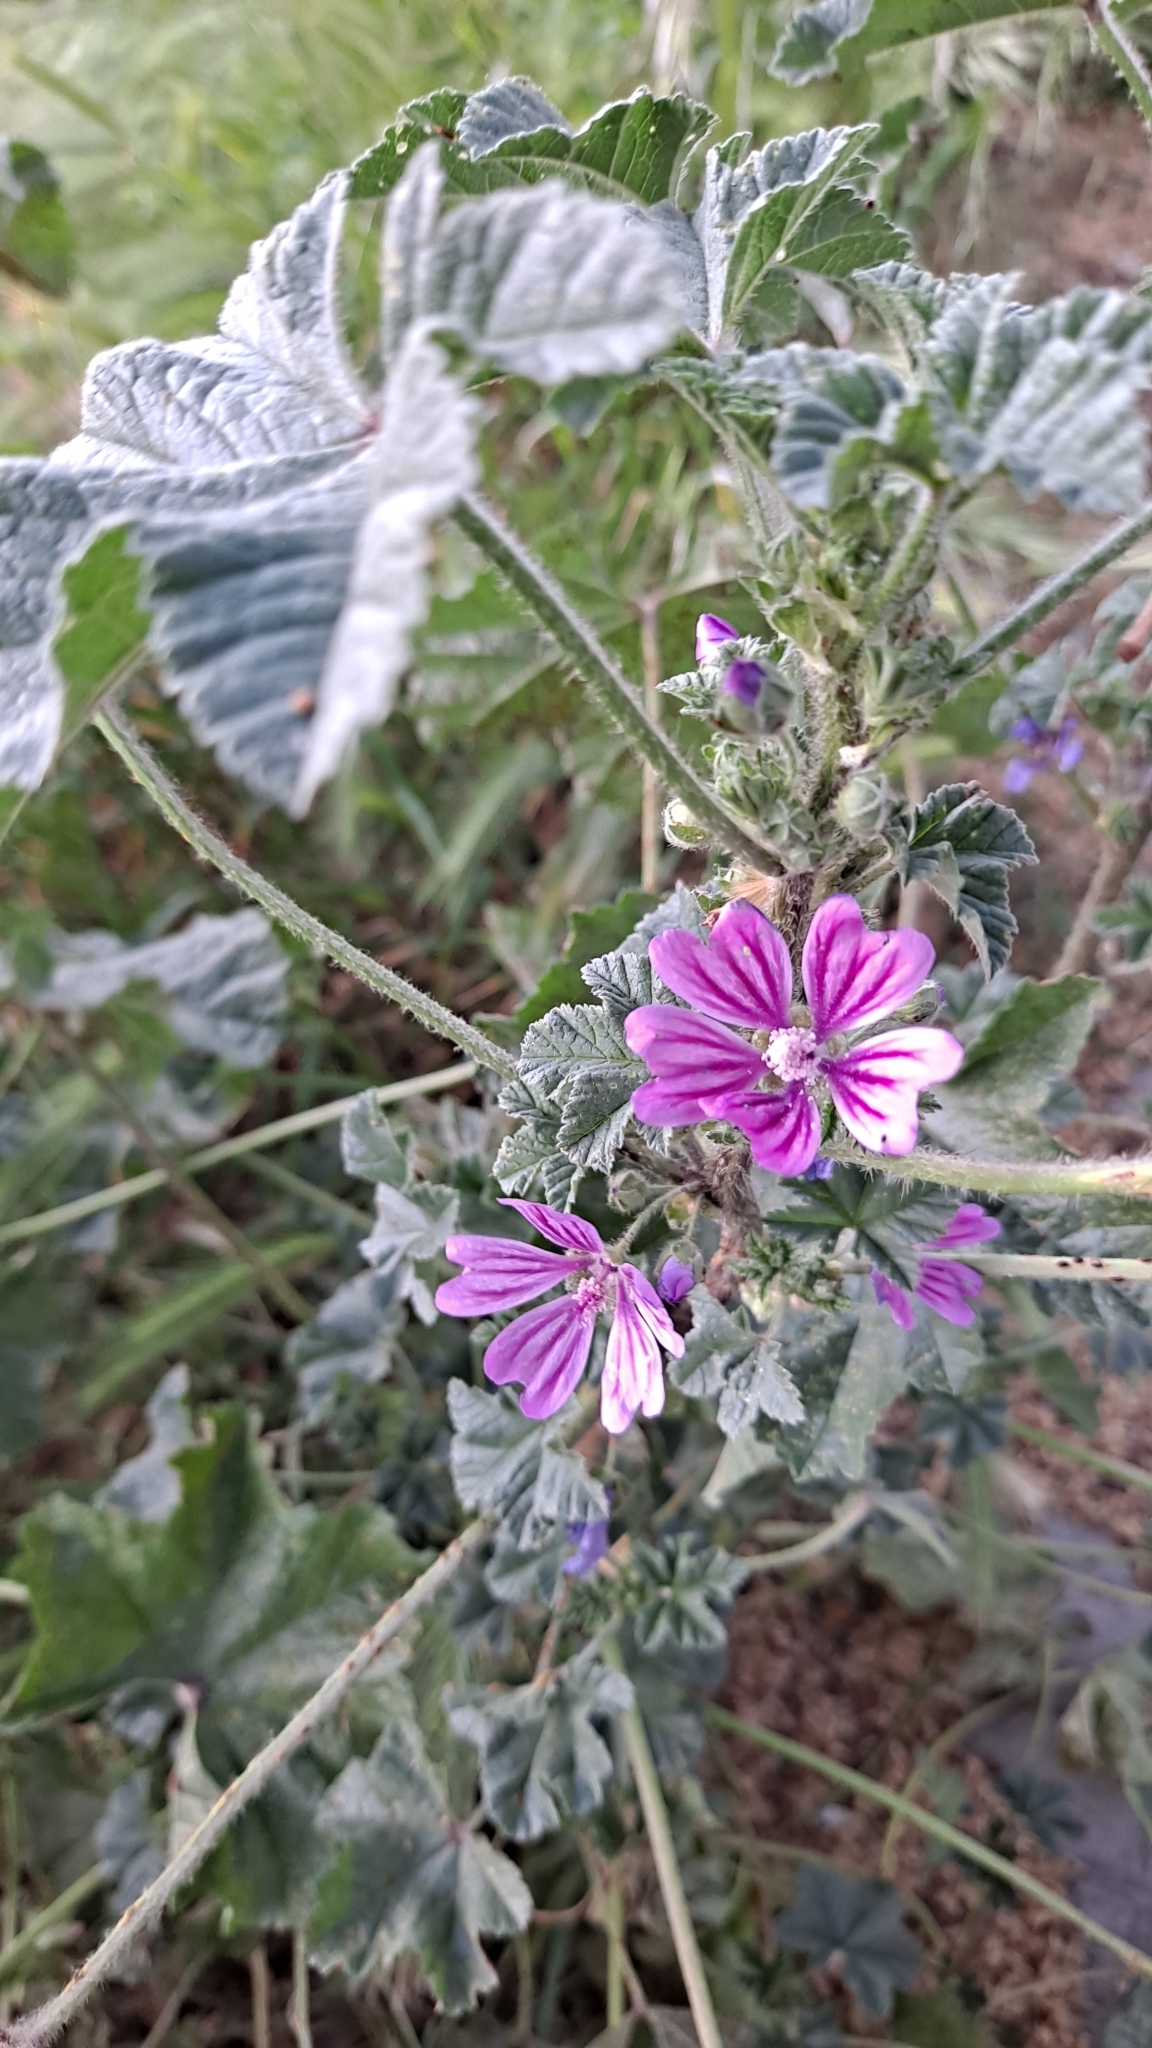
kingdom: Plantae
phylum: Tracheophyta
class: Magnoliopsida
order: Malvales
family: Malvaceae
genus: Malva
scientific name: Malva sylvestris
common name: Common mallow
